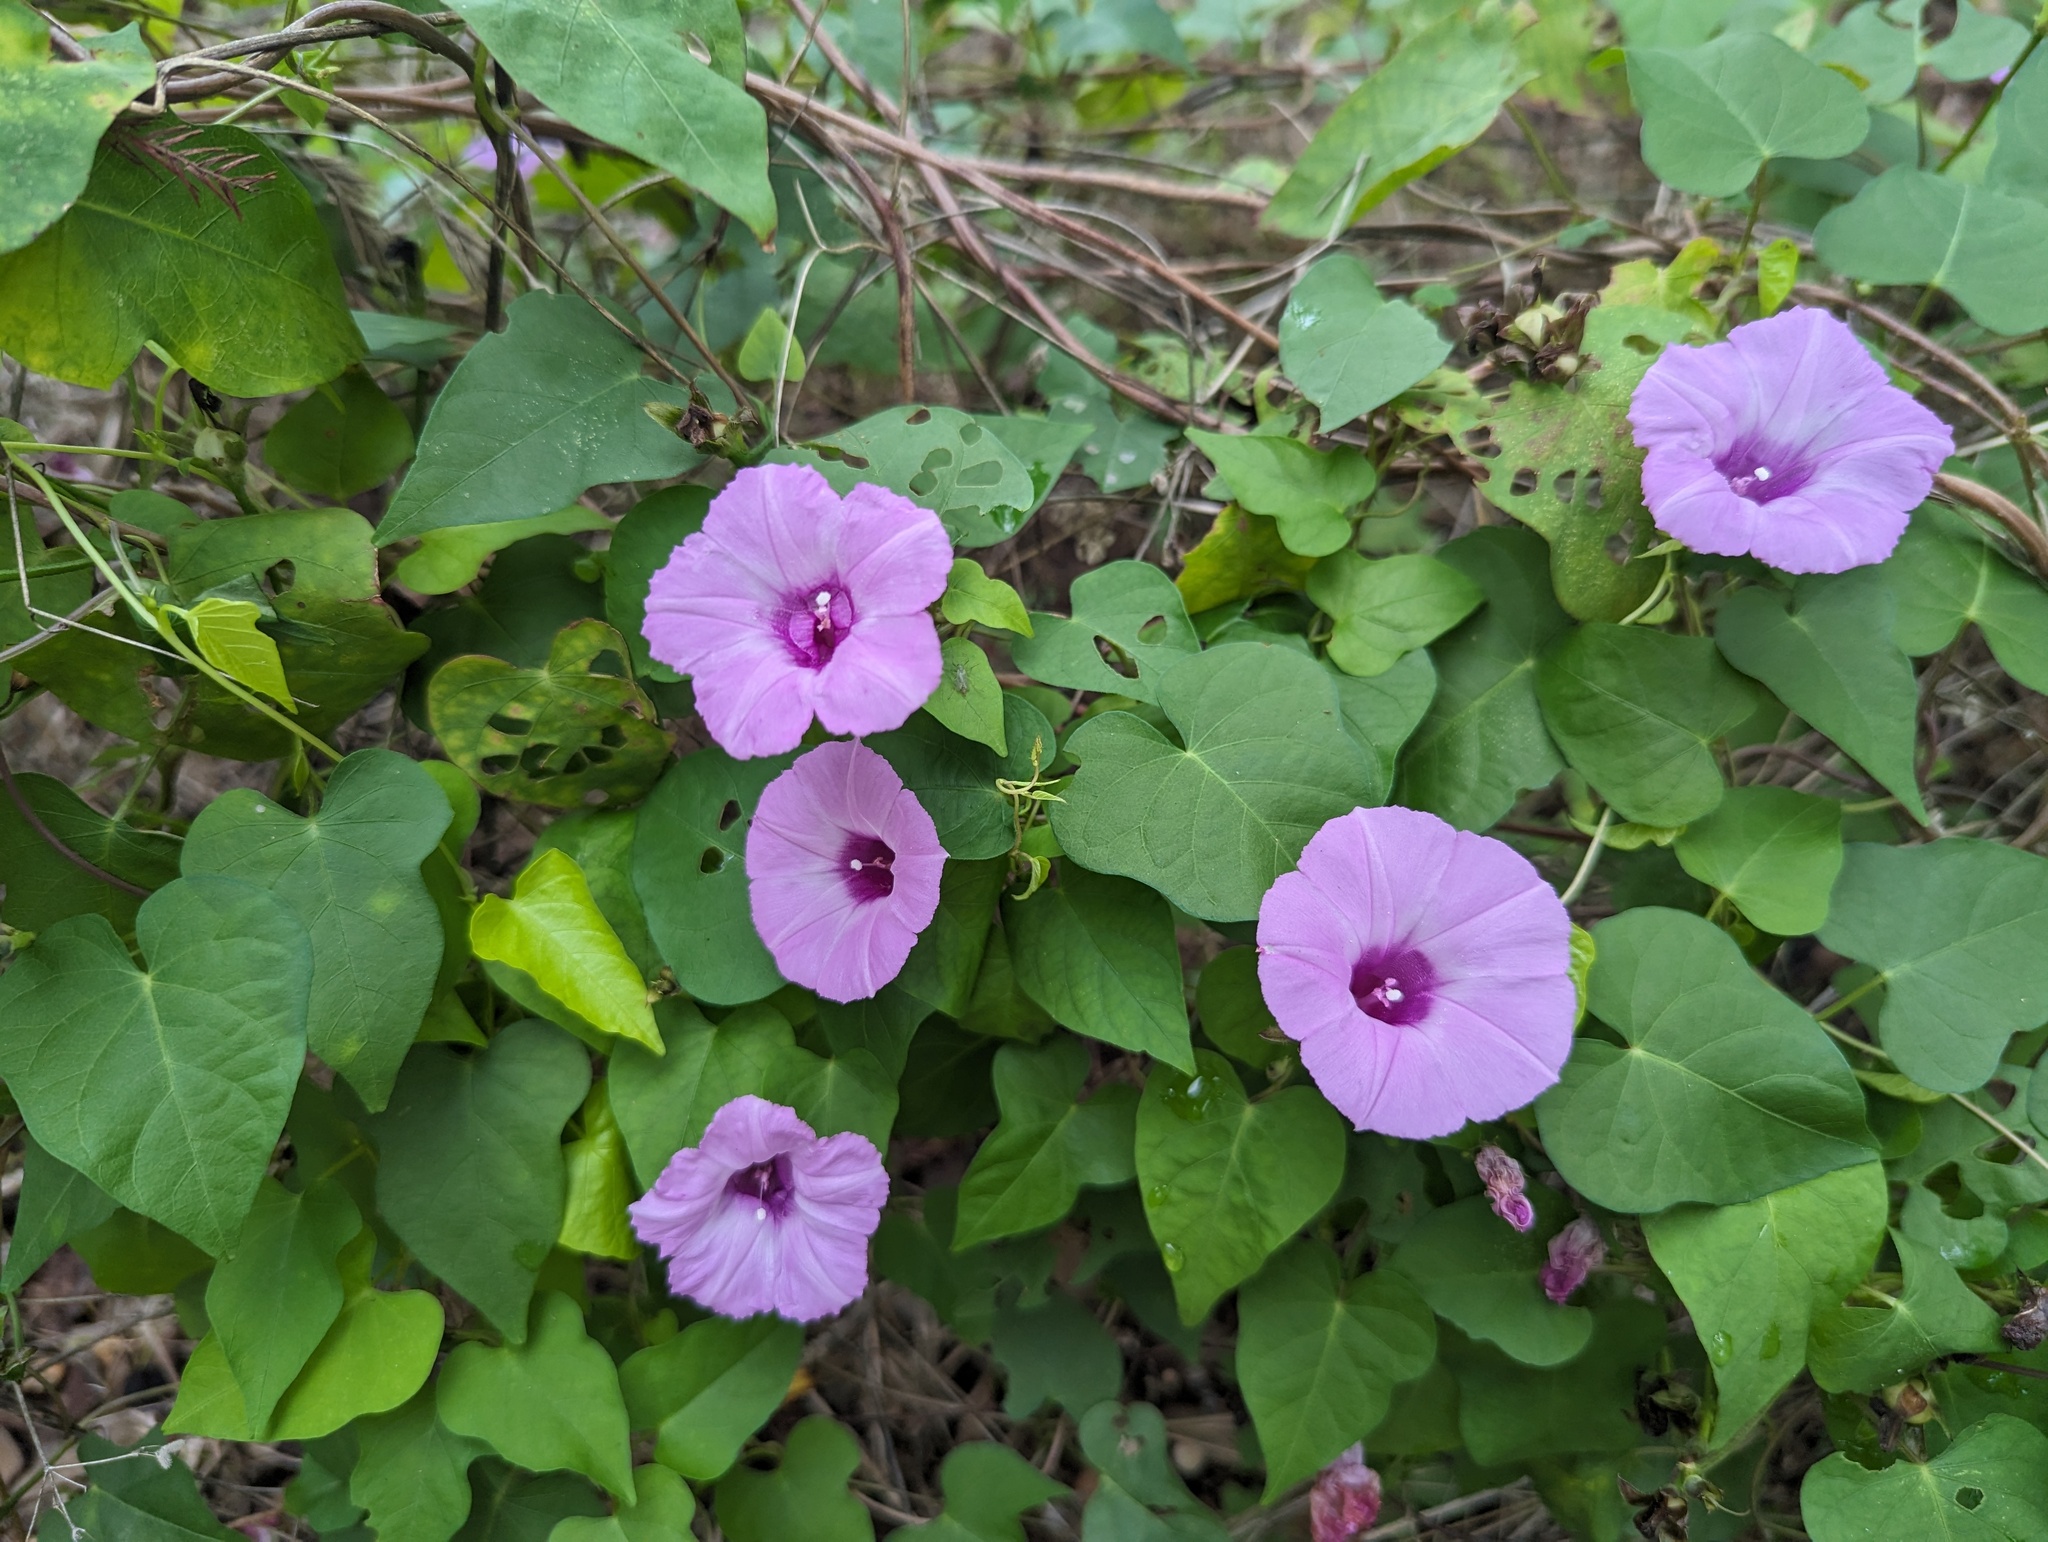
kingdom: Plantae
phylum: Tracheophyta
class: Magnoliopsida
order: Solanales
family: Convolvulaceae
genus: Ipomoea
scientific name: Ipomoea cordatotriloba
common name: Cotton morning glory
